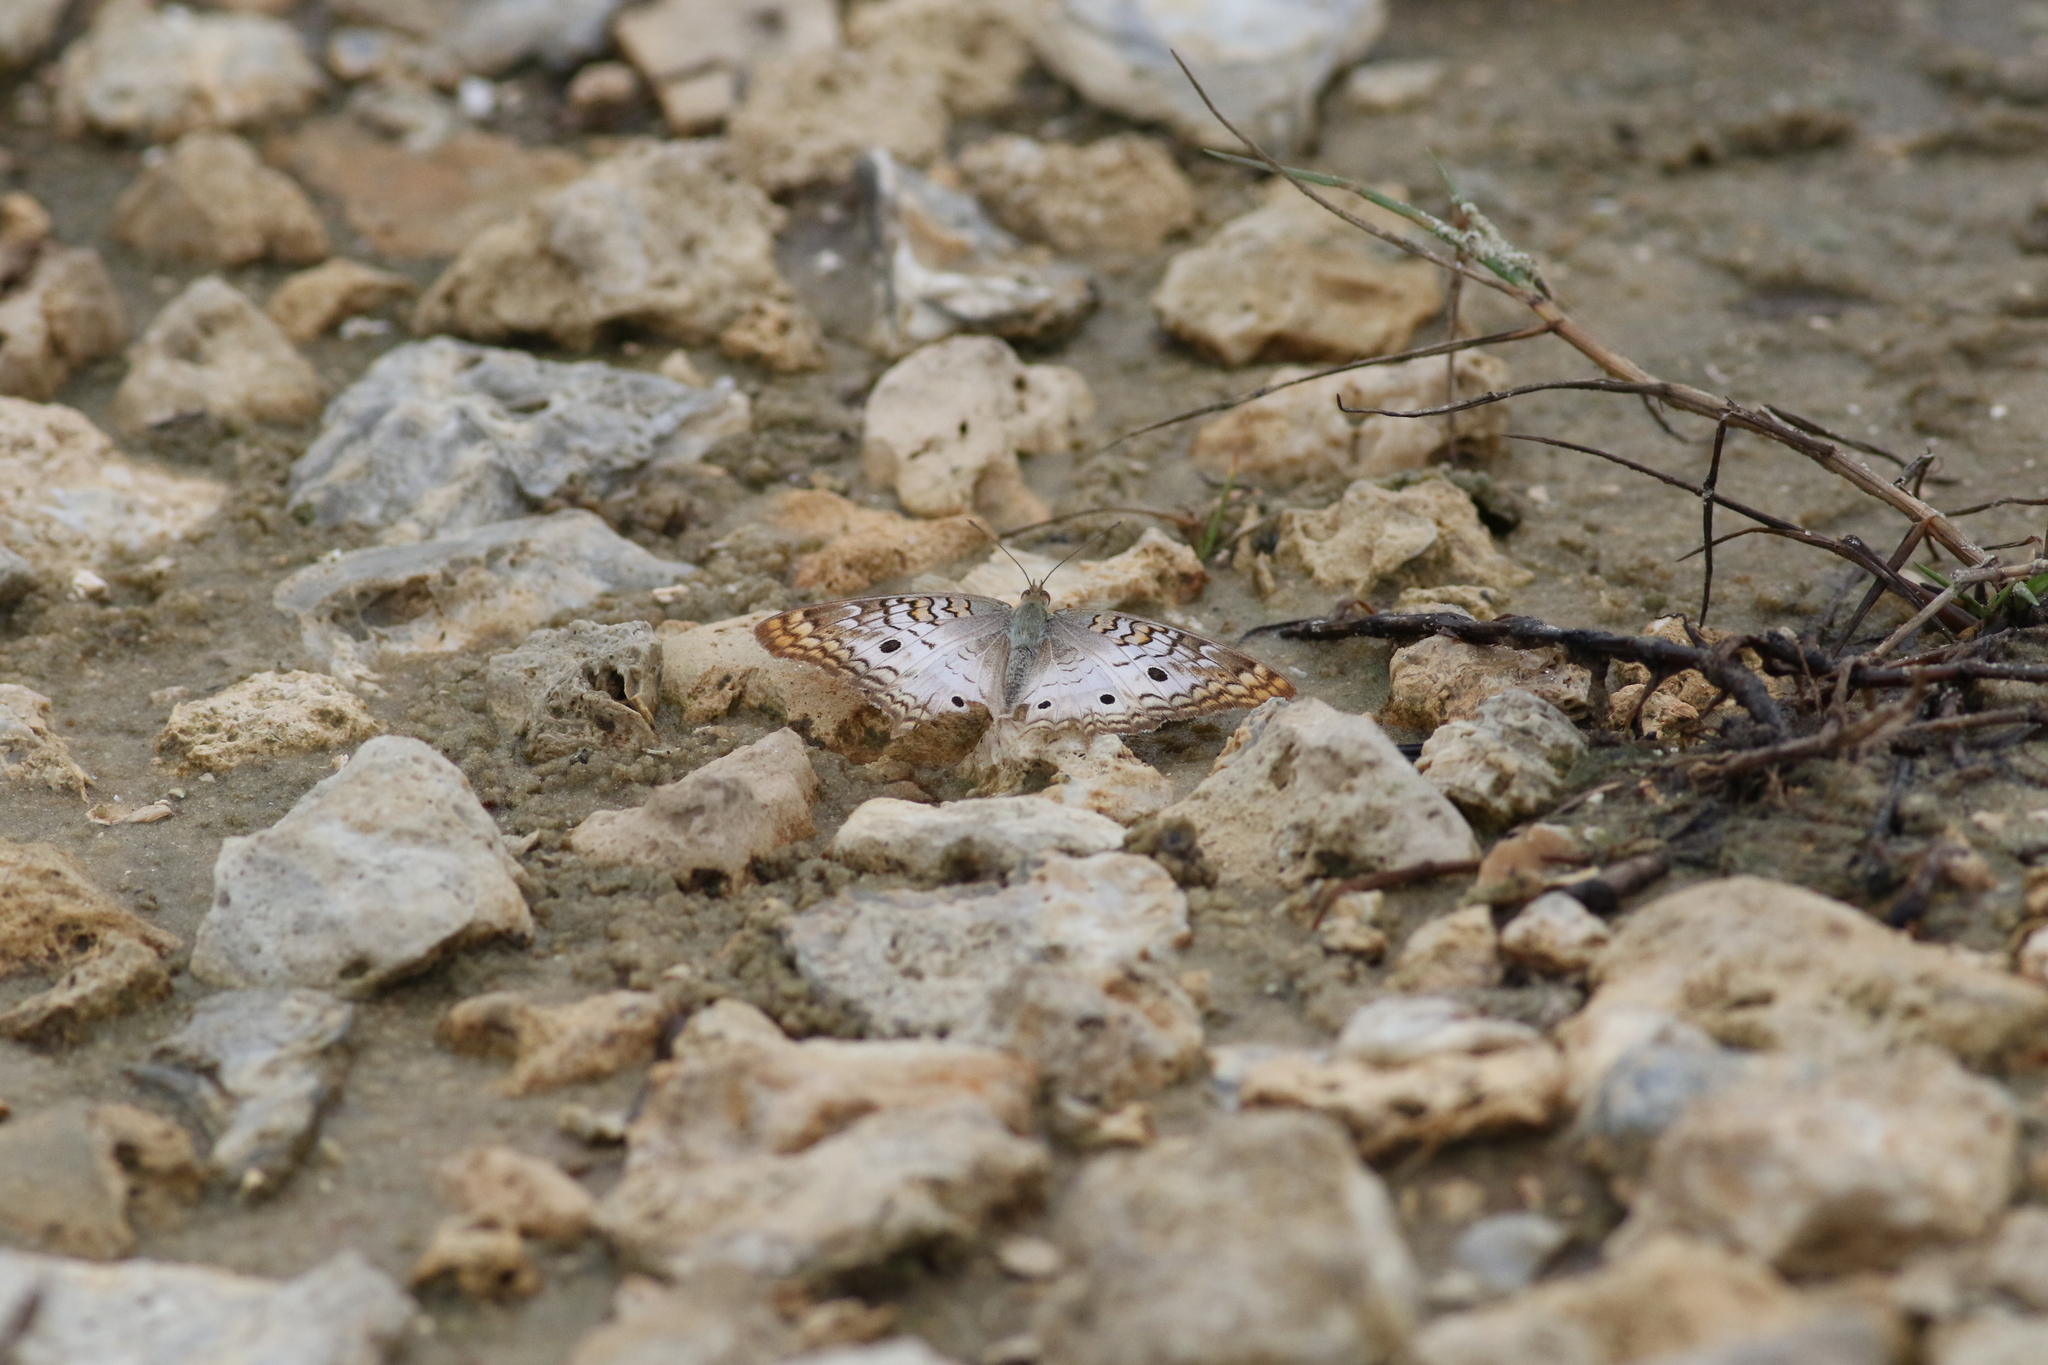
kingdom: Animalia
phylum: Arthropoda
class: Insecta
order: Lepidoptera
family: Nymphalidae
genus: Anartia
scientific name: Anartia jatrophae
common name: White peacock
